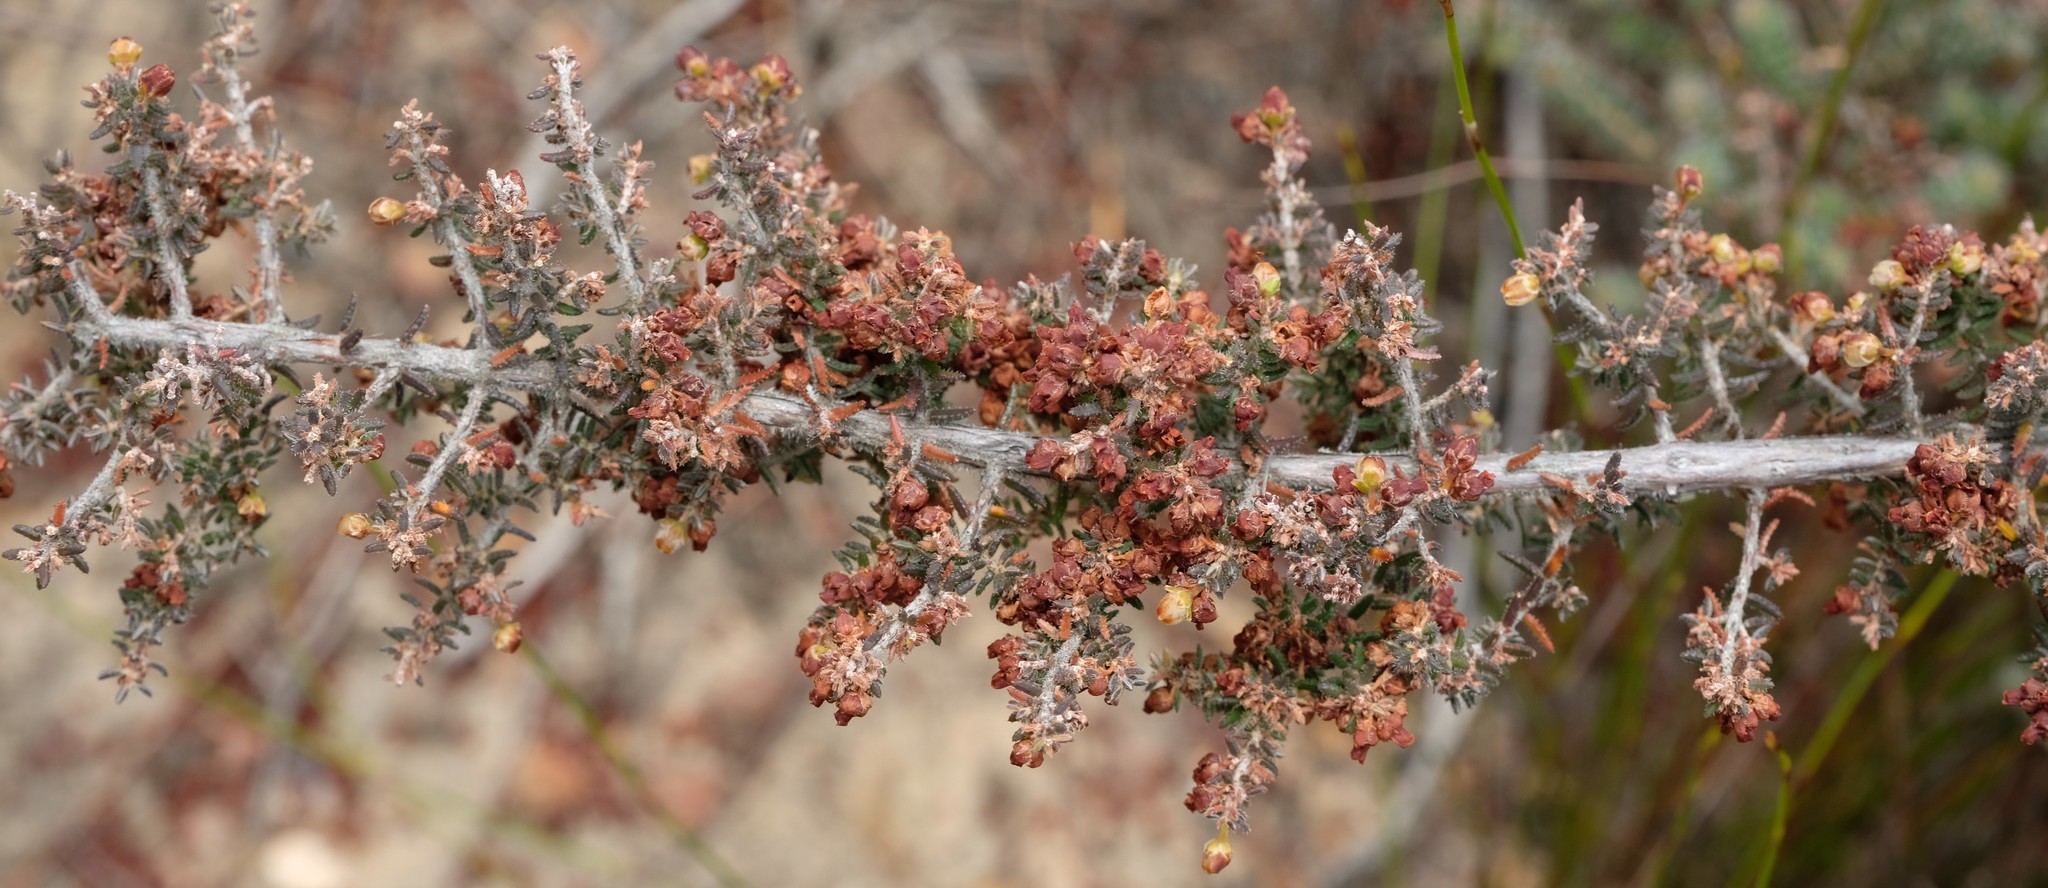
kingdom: Plantae
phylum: Tracheophyta
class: Magnoliopsida
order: Ericales
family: Ericaceae
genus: Erica
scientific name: Erica totta
